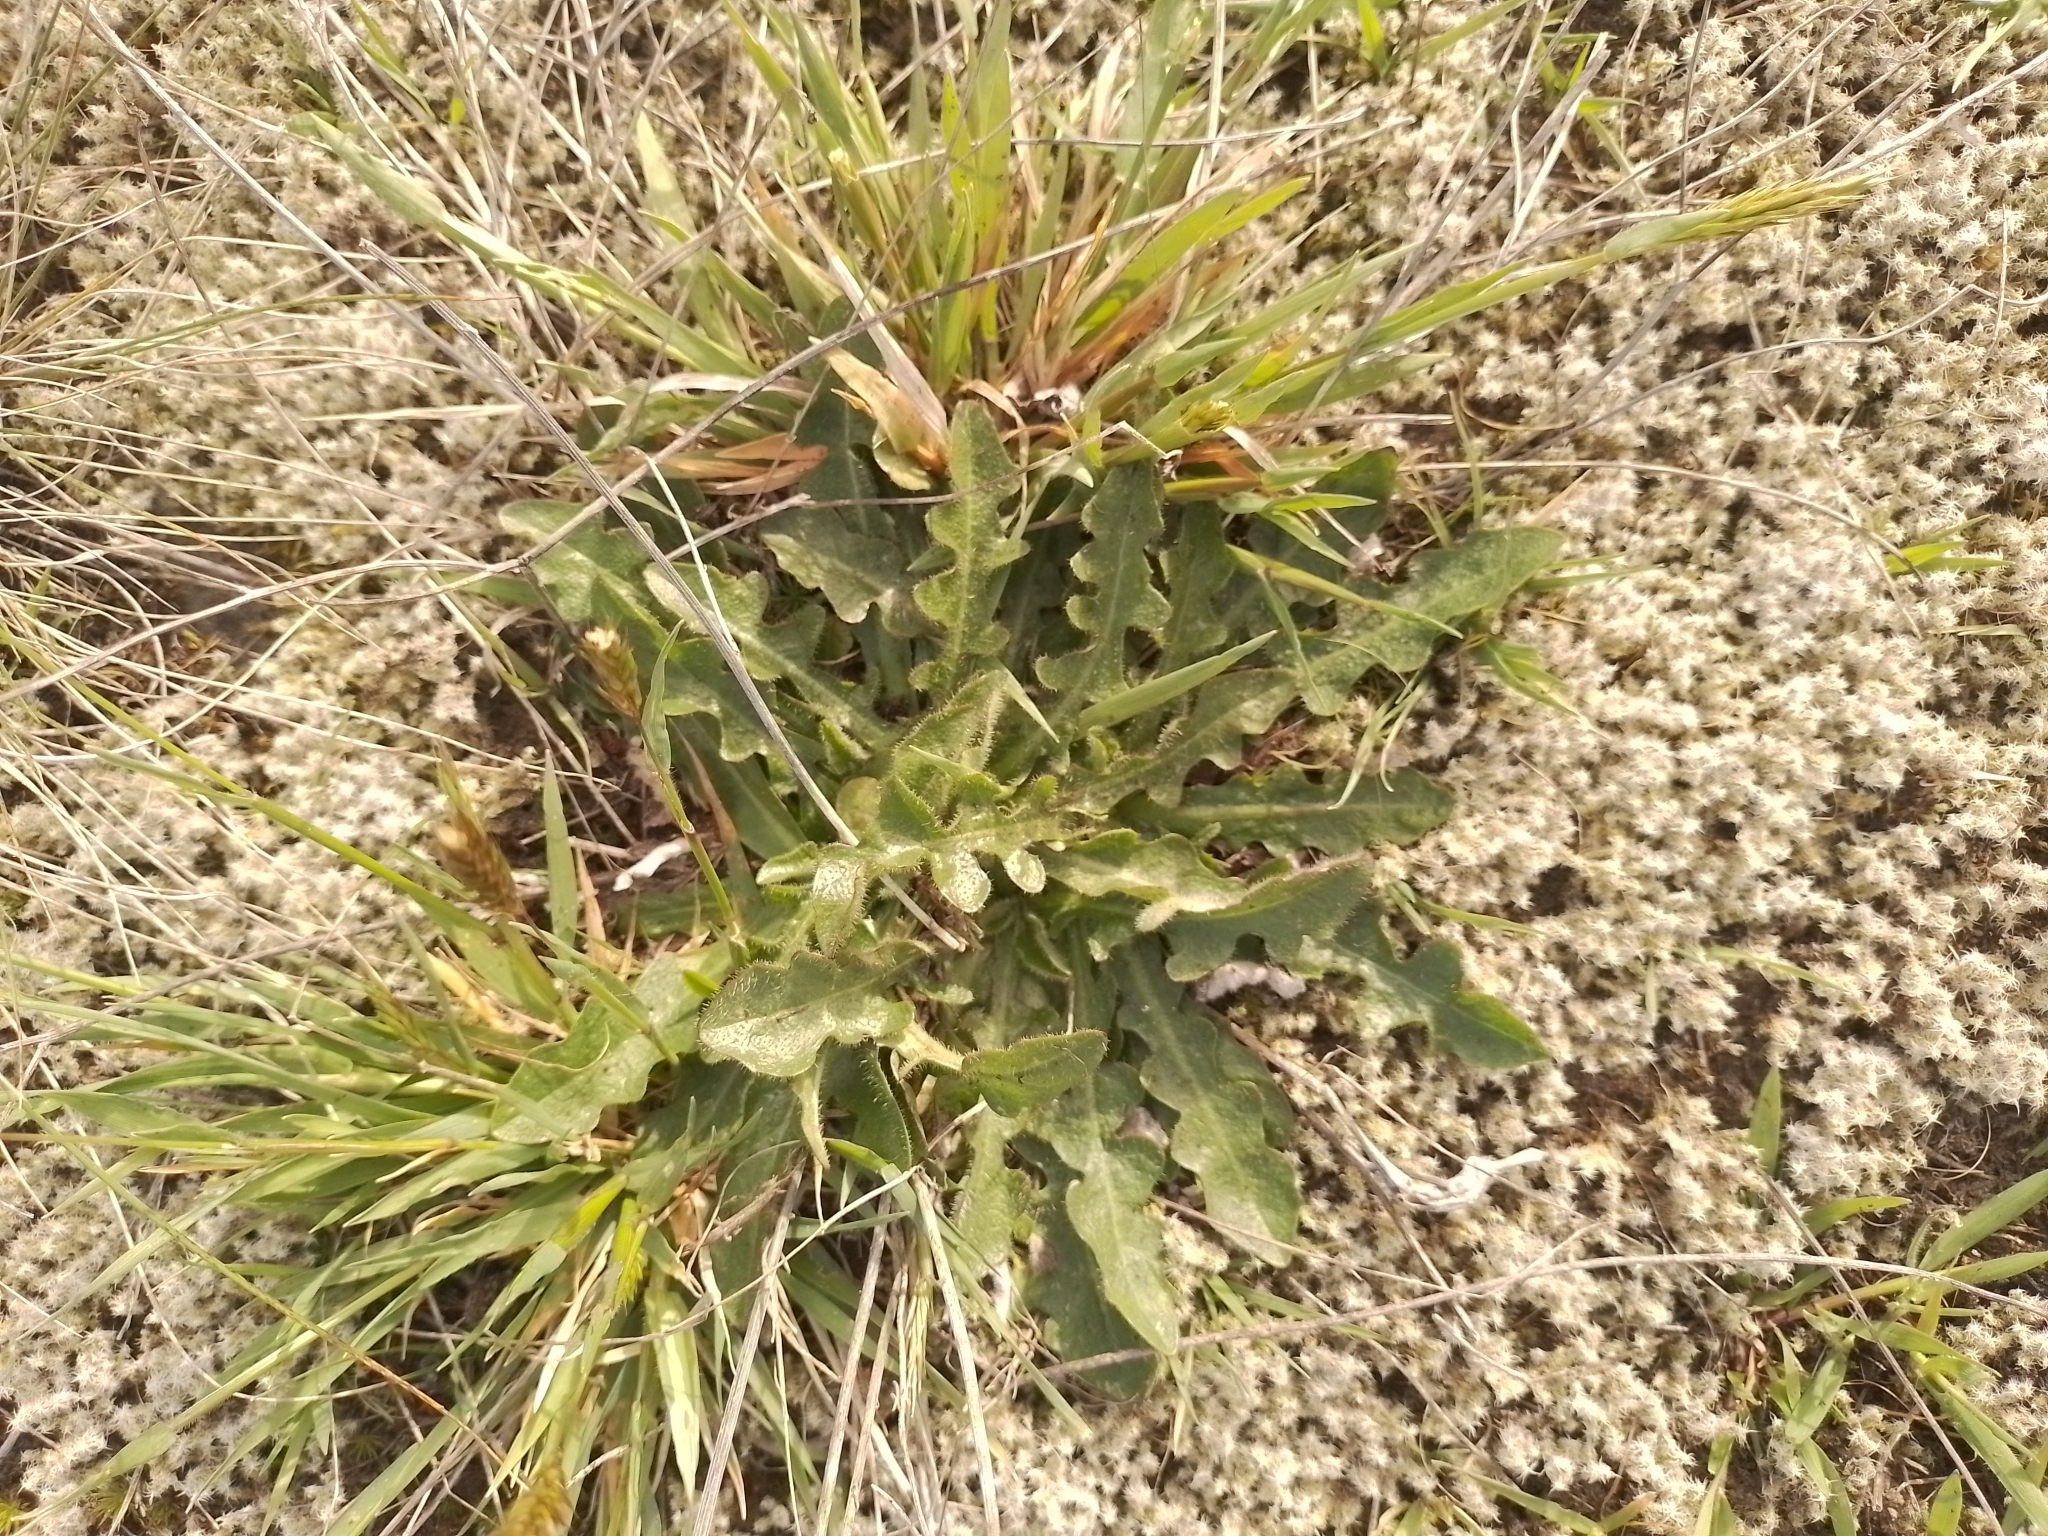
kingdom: Plantae
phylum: Tracheophyta
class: Magnoliopsida
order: Asterales
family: Asteraceae
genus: Hypochaeris
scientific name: Hypochaeris radicata
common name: Flatweed
